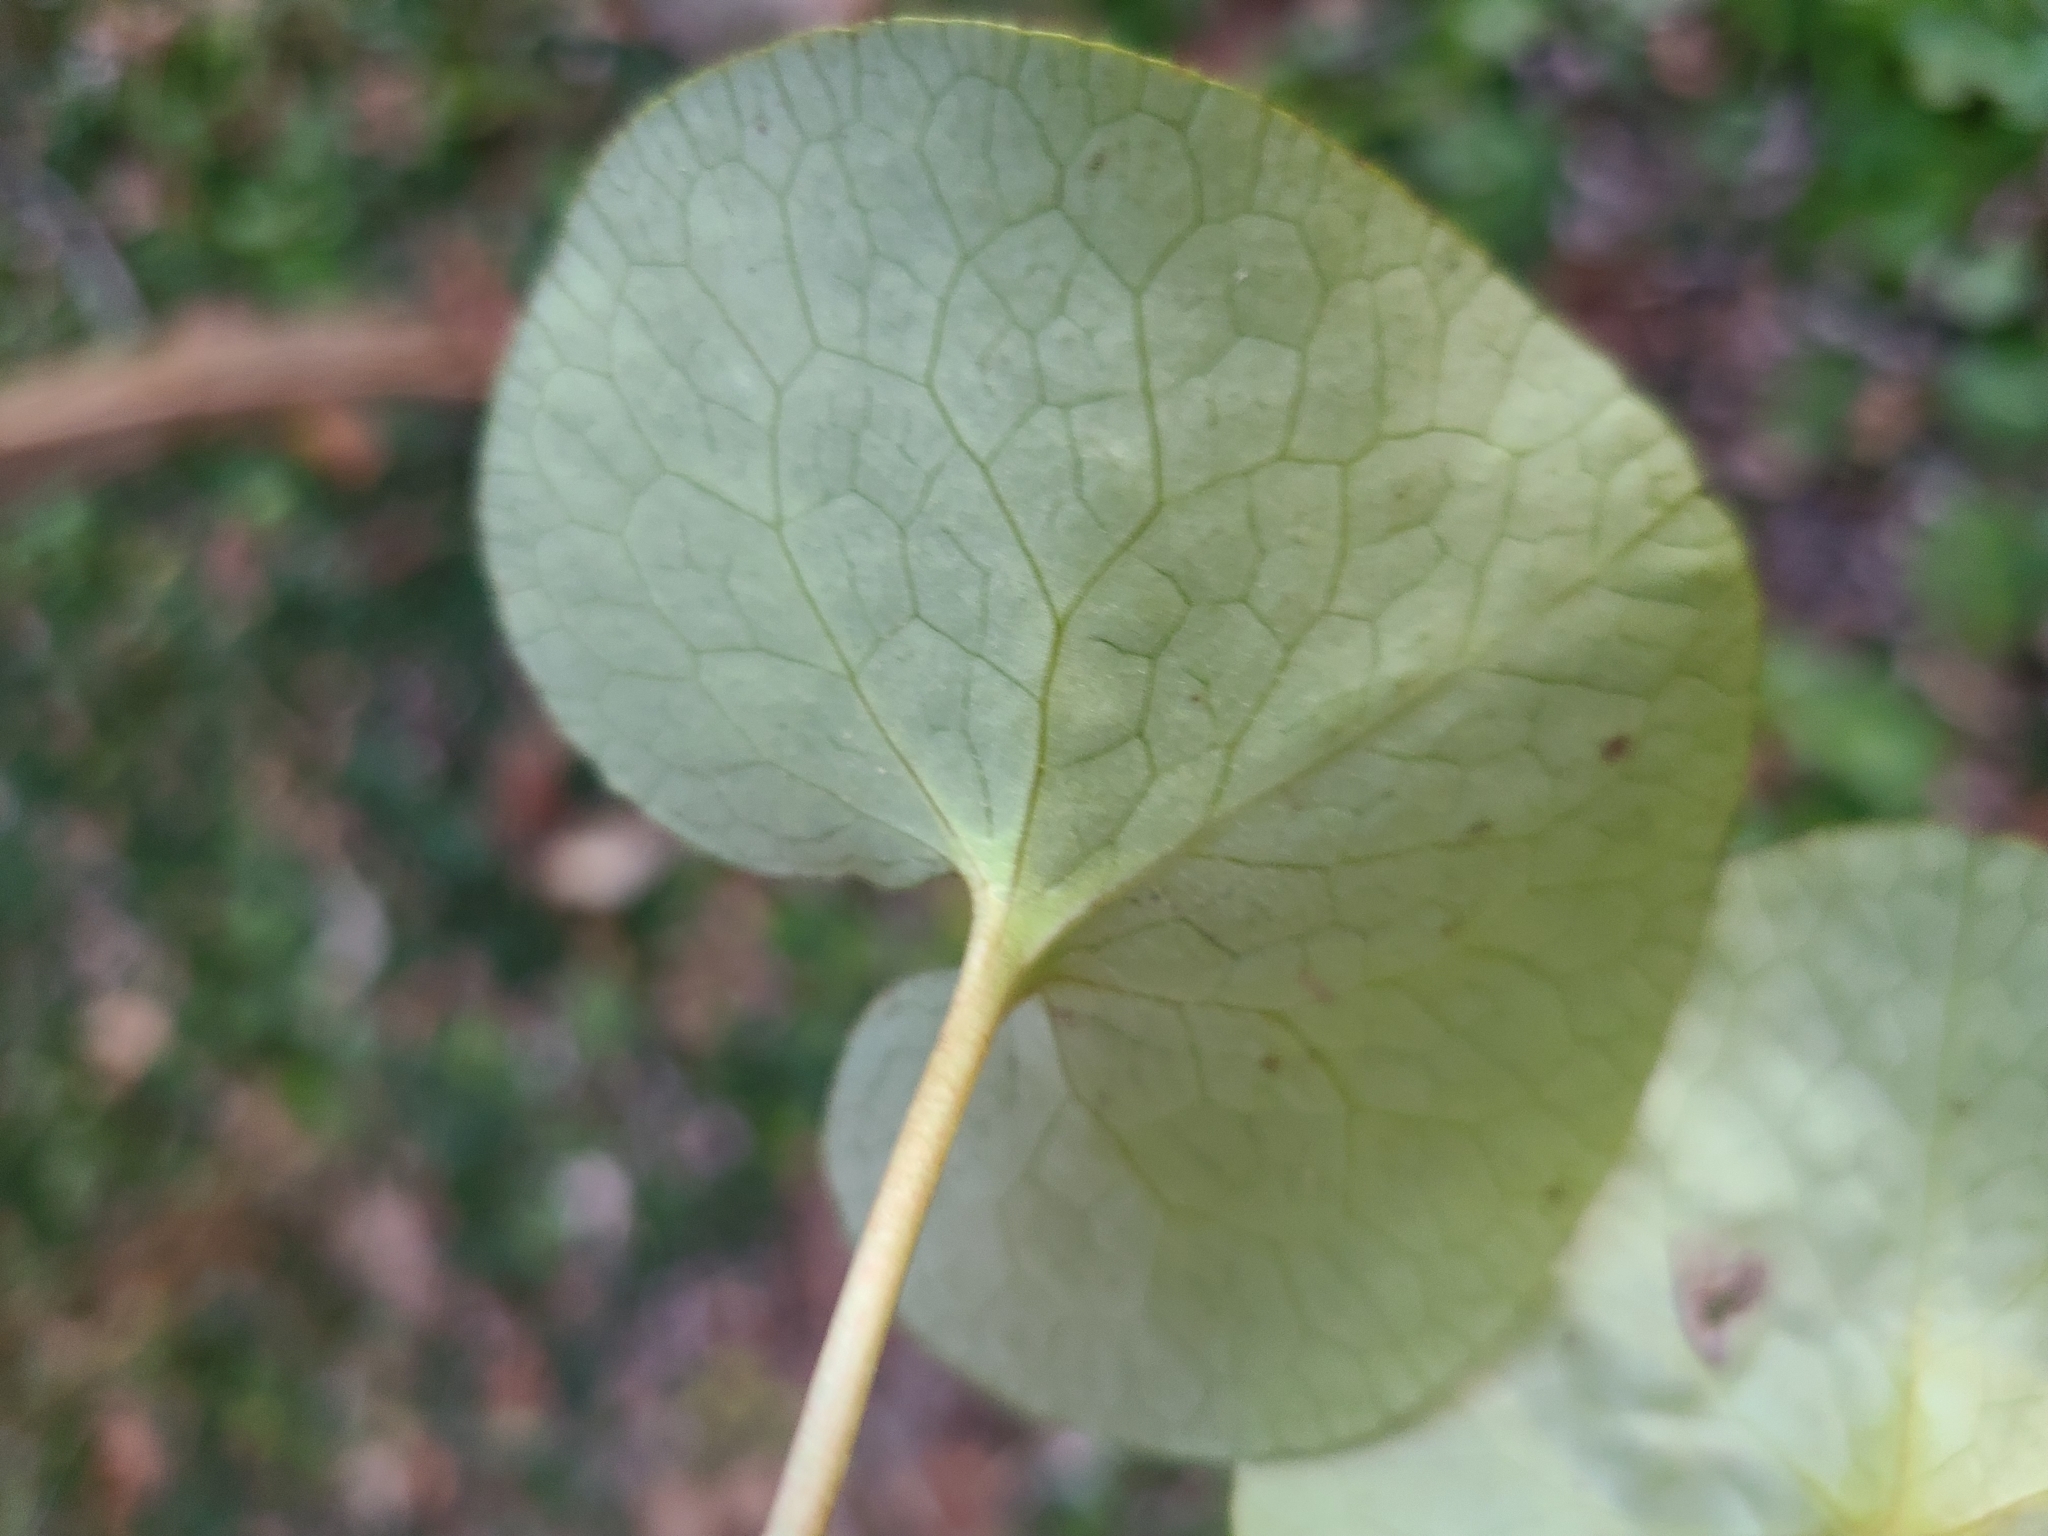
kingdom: Plantae
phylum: Tracheophyta
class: Magnoliopsida
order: Piperales
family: Aristolochiaceae
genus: Asarum
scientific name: Asarum canadense
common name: Wild ginger
